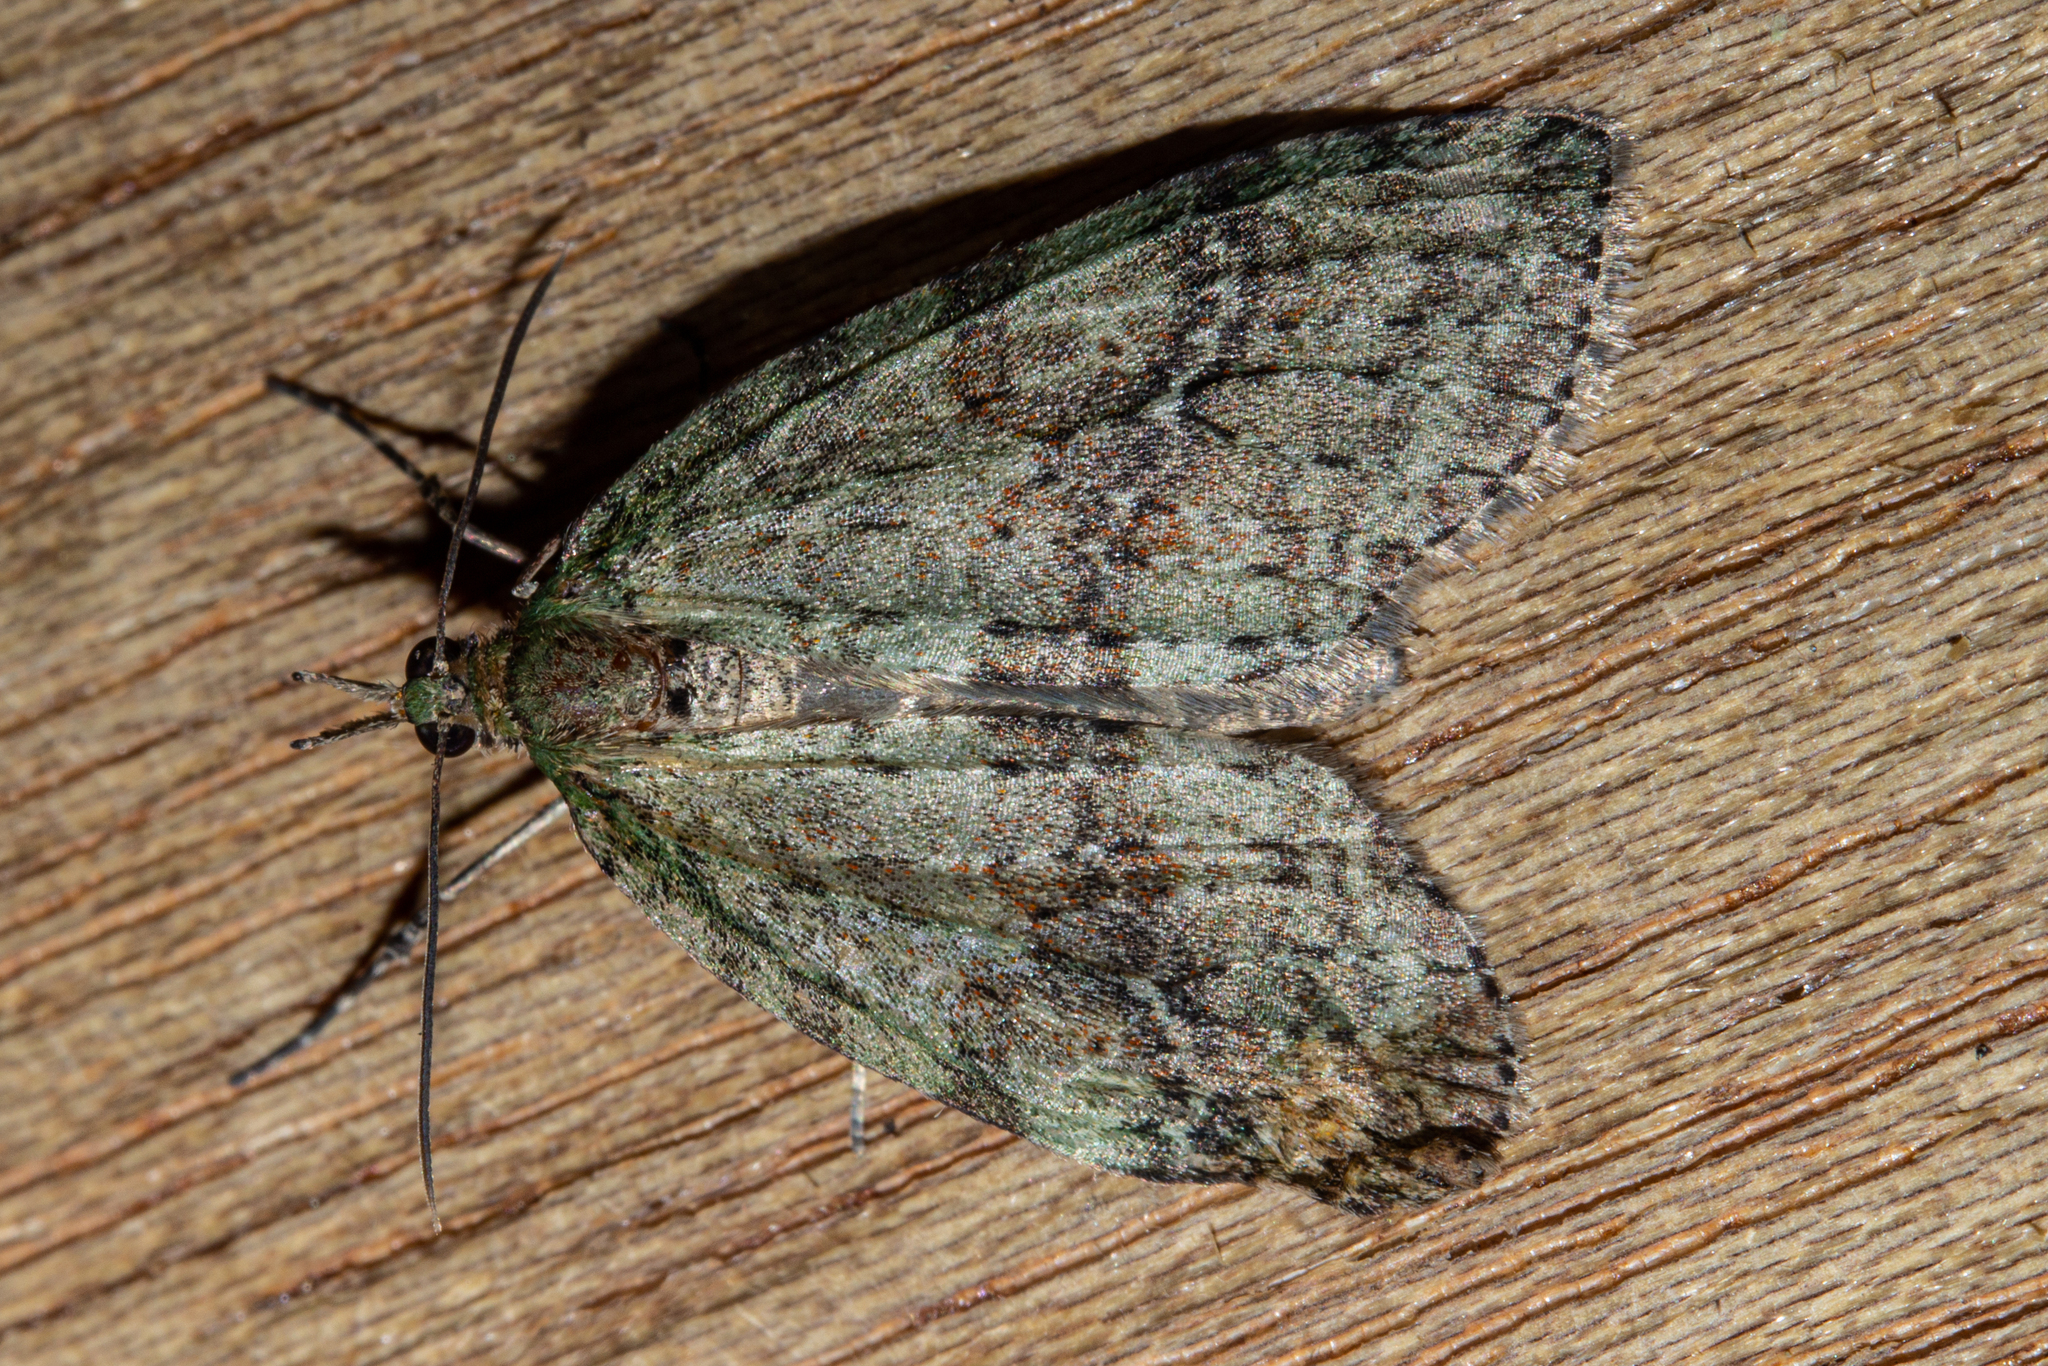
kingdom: Animalia
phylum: Arthropoda
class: Insecta
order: Lepidoptera
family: Geometridae
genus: Tatosoma
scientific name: Tatosoma transitaria
